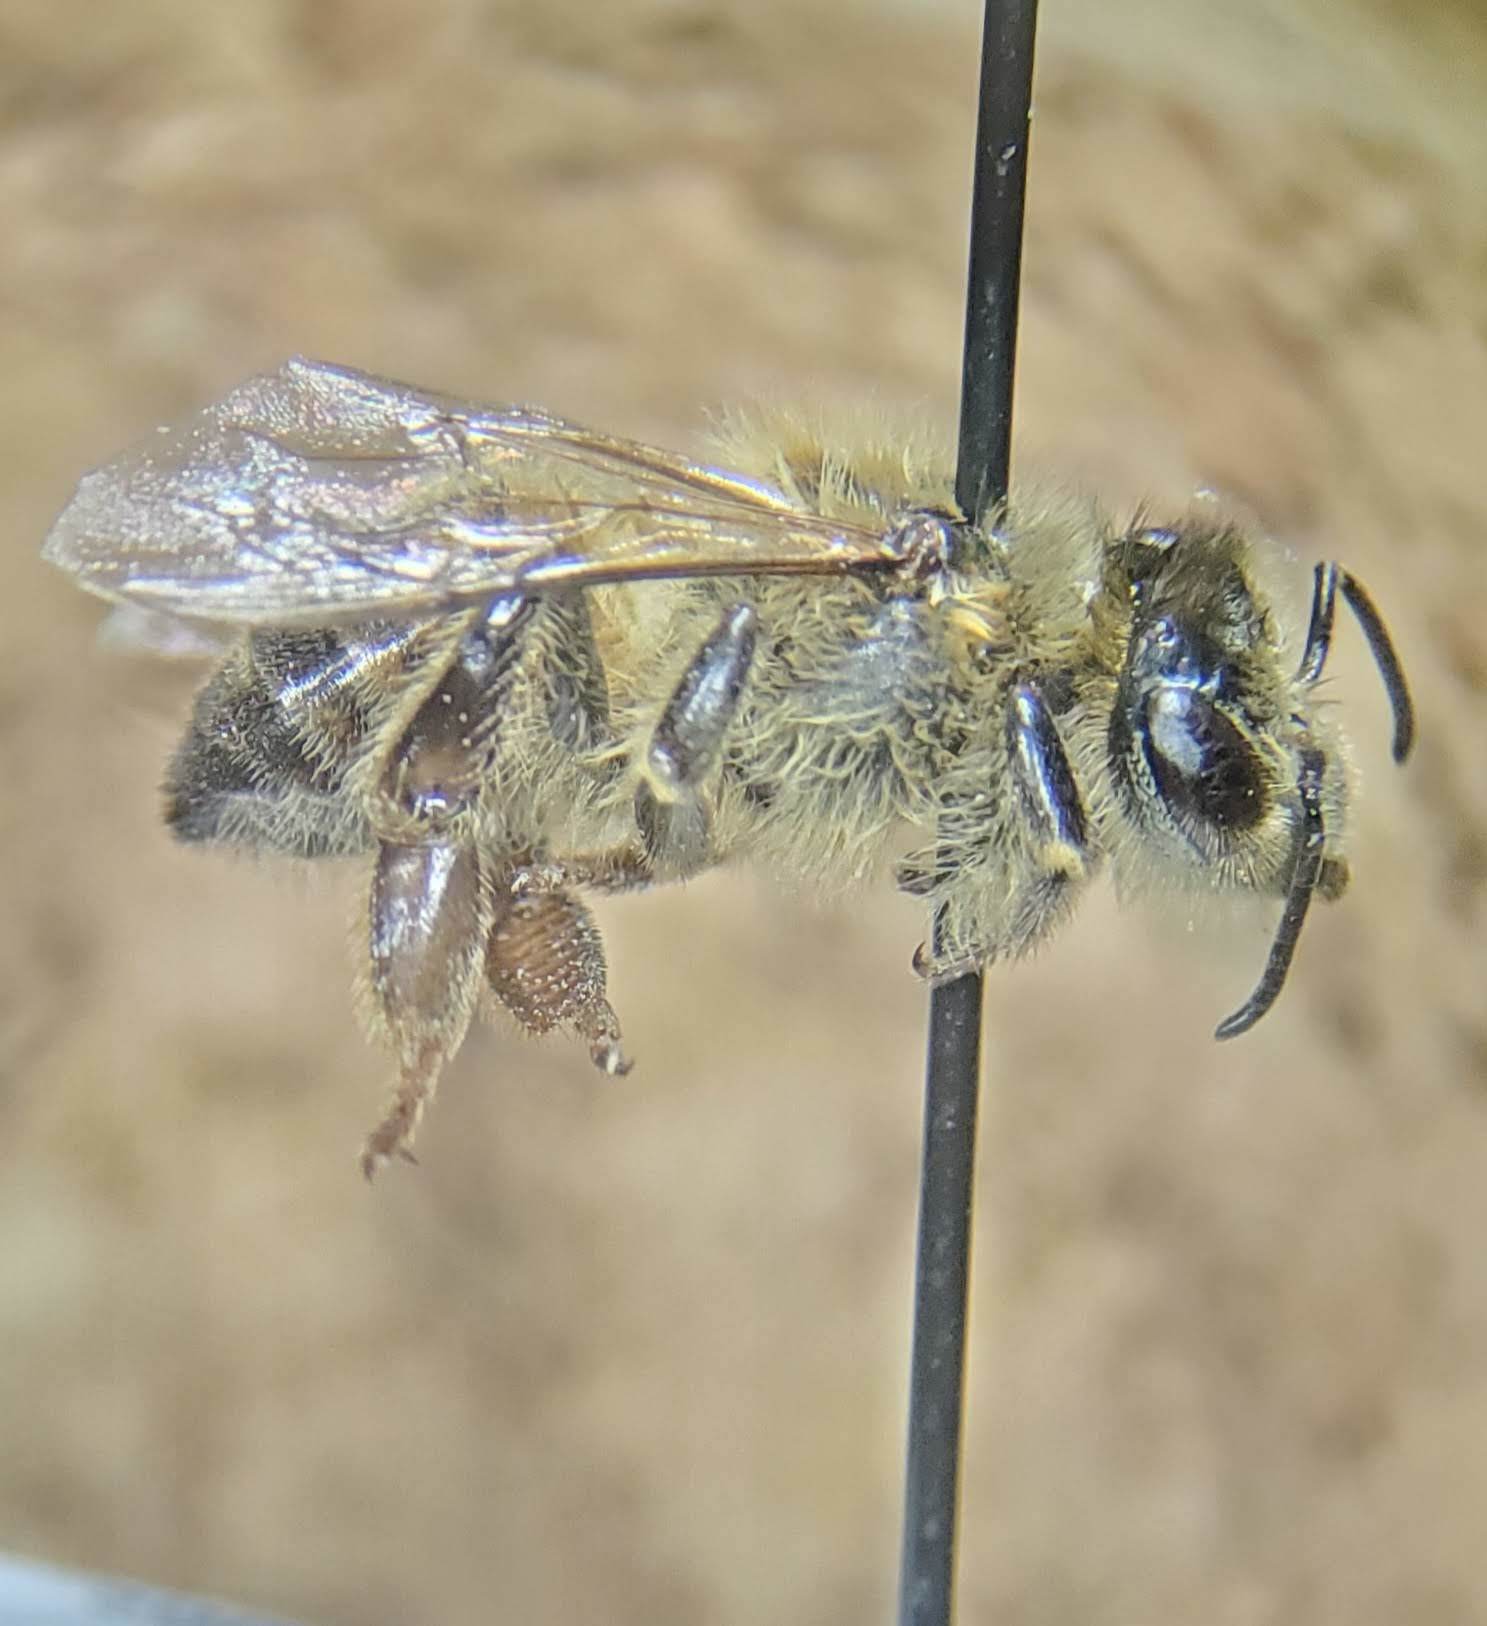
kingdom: Animalia
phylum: Arthropoda
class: Insecta
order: Hymenoptera
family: Apidae
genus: Apis
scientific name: Apis mellifera
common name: Honey bee
